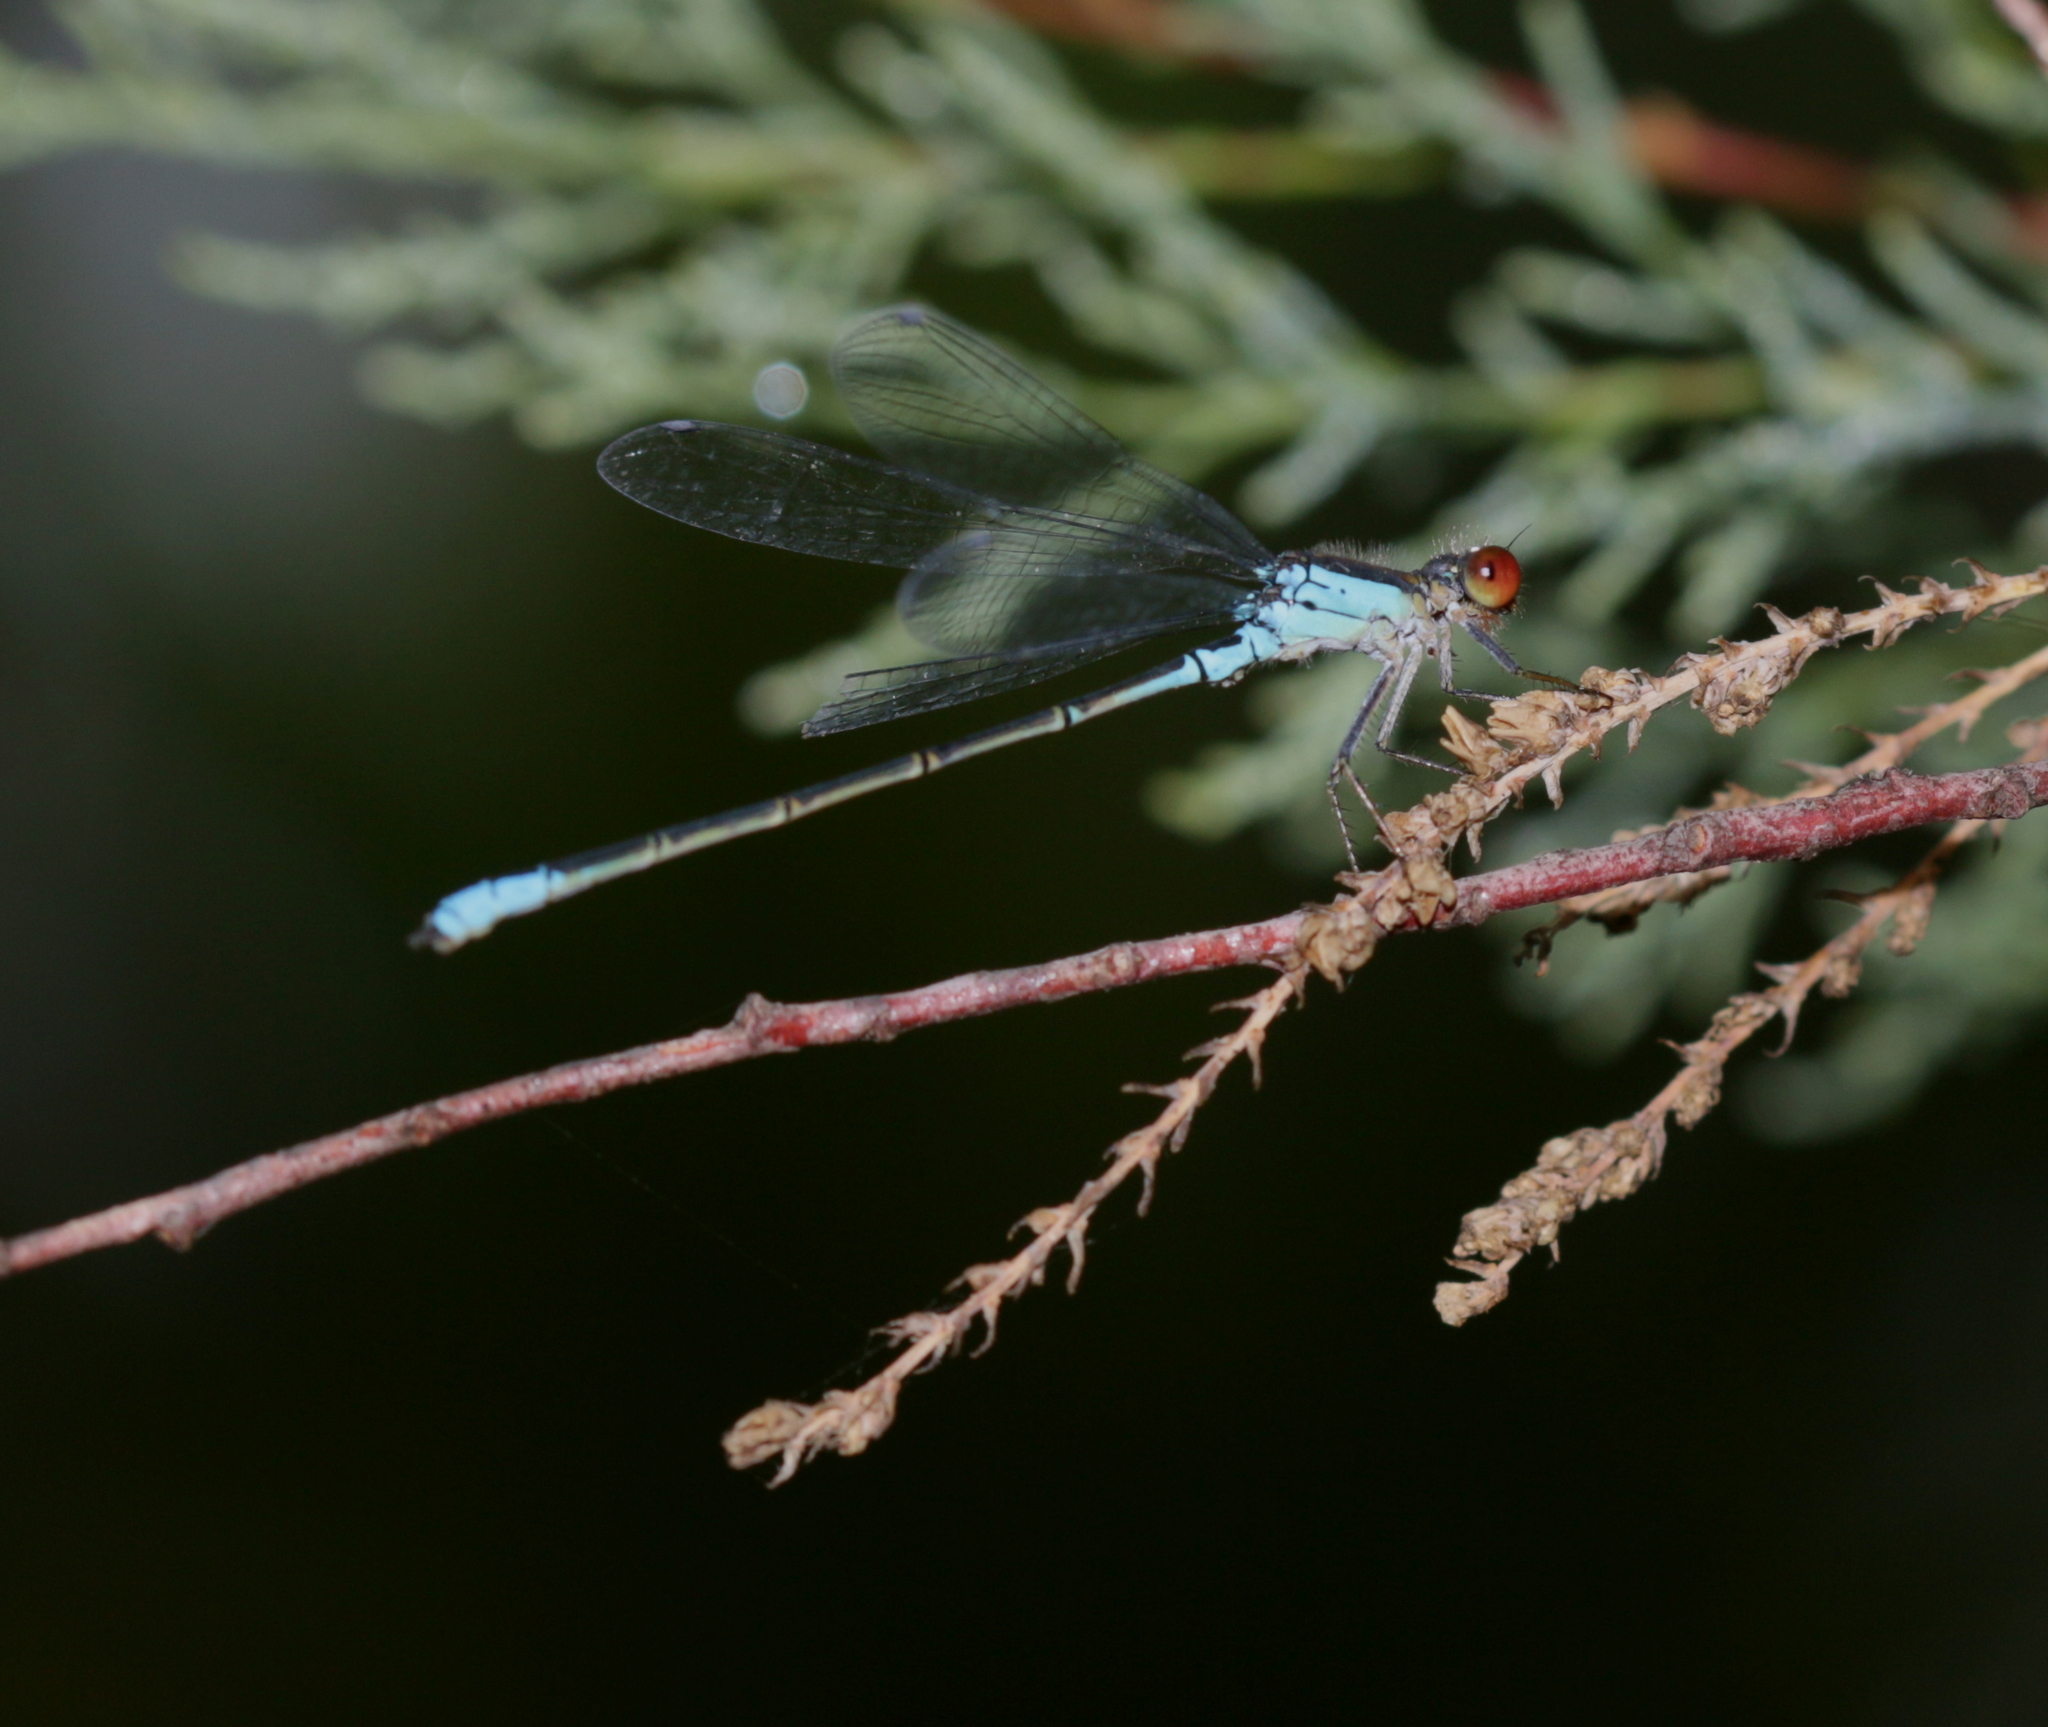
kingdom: Animalia
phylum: Arthropoda
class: Insecta
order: Odonata
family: Coenagrionidae
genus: Erythromma
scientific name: Erythromma viridulum
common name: Small red-eyed damselfly
